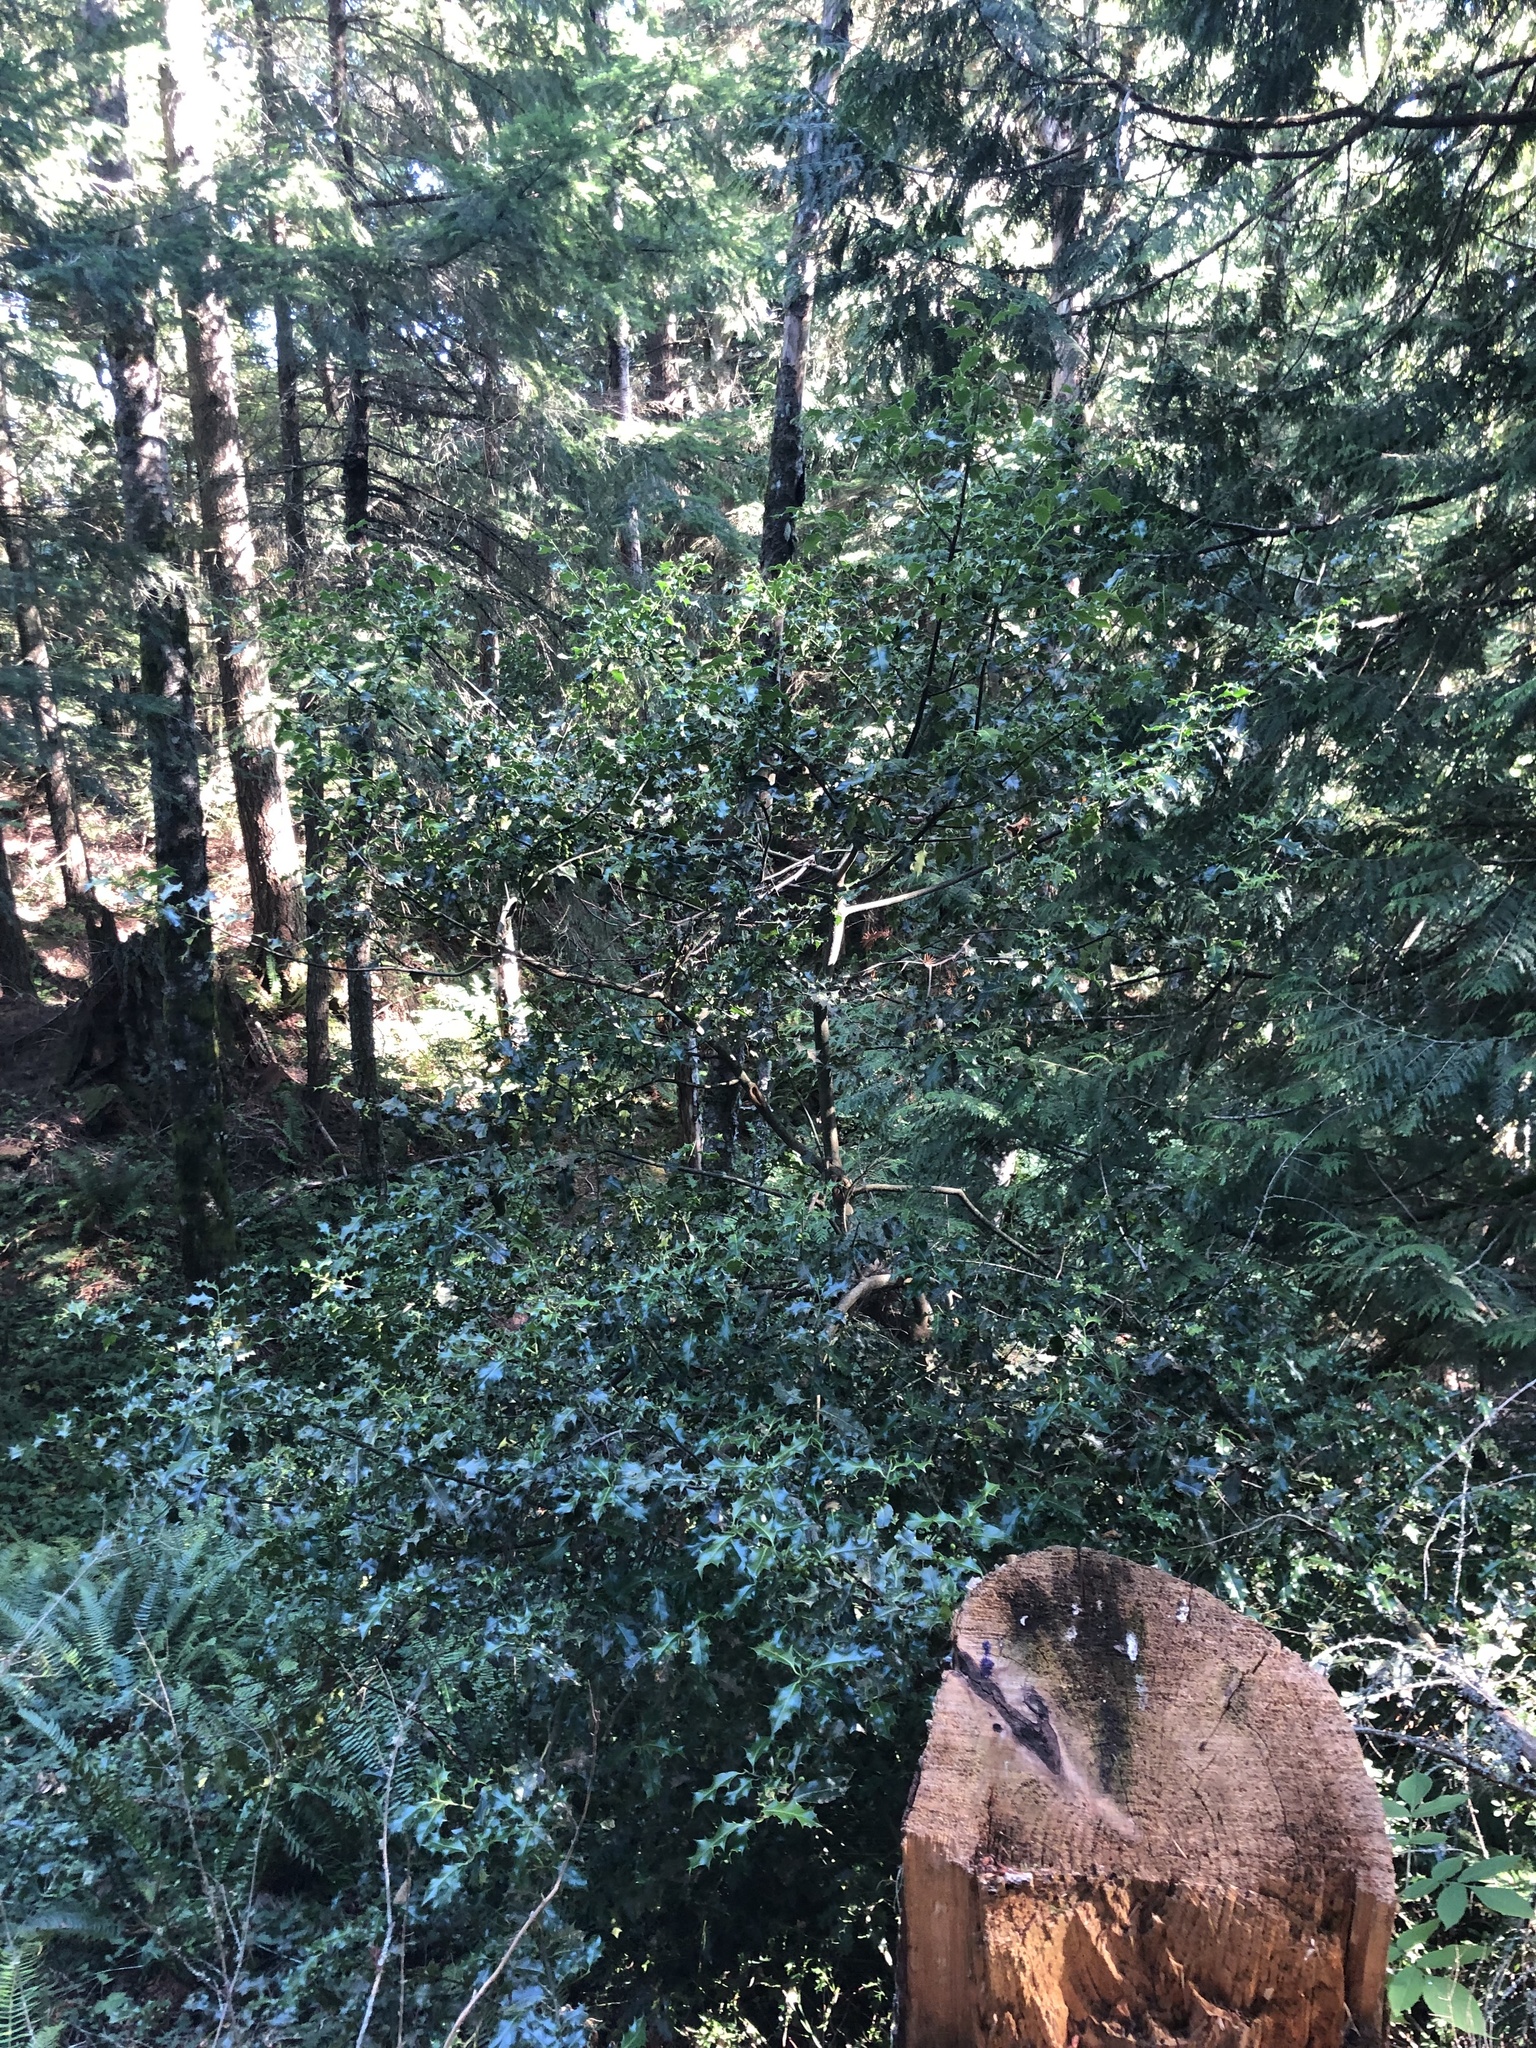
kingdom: Plantae
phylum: Tracheophyta
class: Magnoliopsida
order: Aquifoliales
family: Aquifoliaceae
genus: Ilex
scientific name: Ilex aquifolium
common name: English holly
